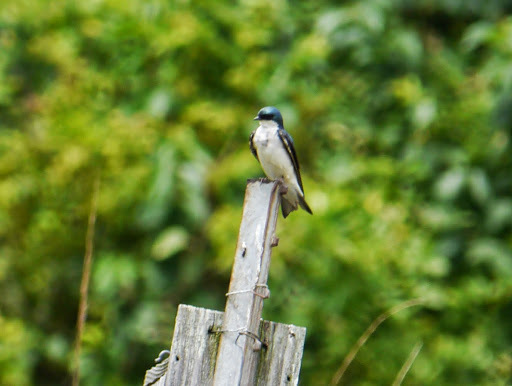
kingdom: Animalia
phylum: Chordata
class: Aves
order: Passeriformes
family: Hirundinidae
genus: Tachycineta
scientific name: Tachycineta bicolor
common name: Tree swallow
